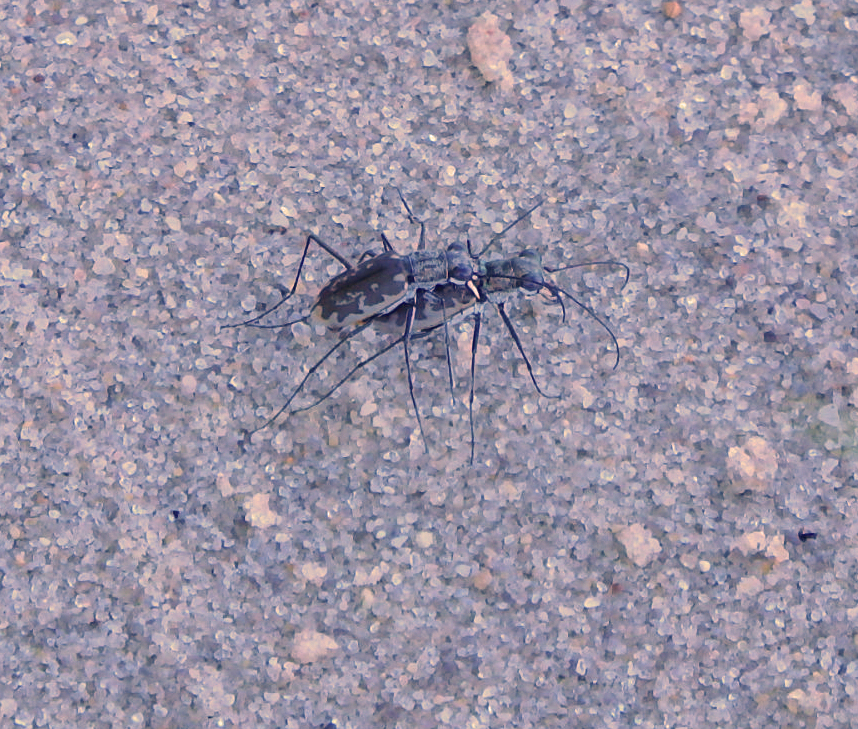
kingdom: Animalia
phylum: Arthropoda
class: Insecta
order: Coleoptera
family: Carabidae
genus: Ellipsoptera
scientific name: Ellipsoptera marginata
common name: Margined tiger beetle
